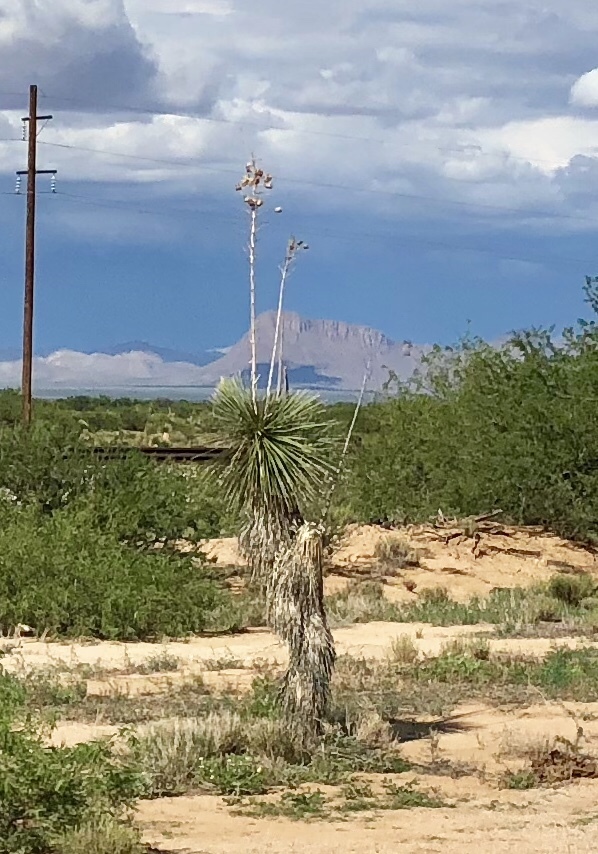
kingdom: Plantae
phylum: Tracheophyta
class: Liliopsida
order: Asparagales
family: Asparagaceae
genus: Yucca
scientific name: Yucca elata
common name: Palmella
